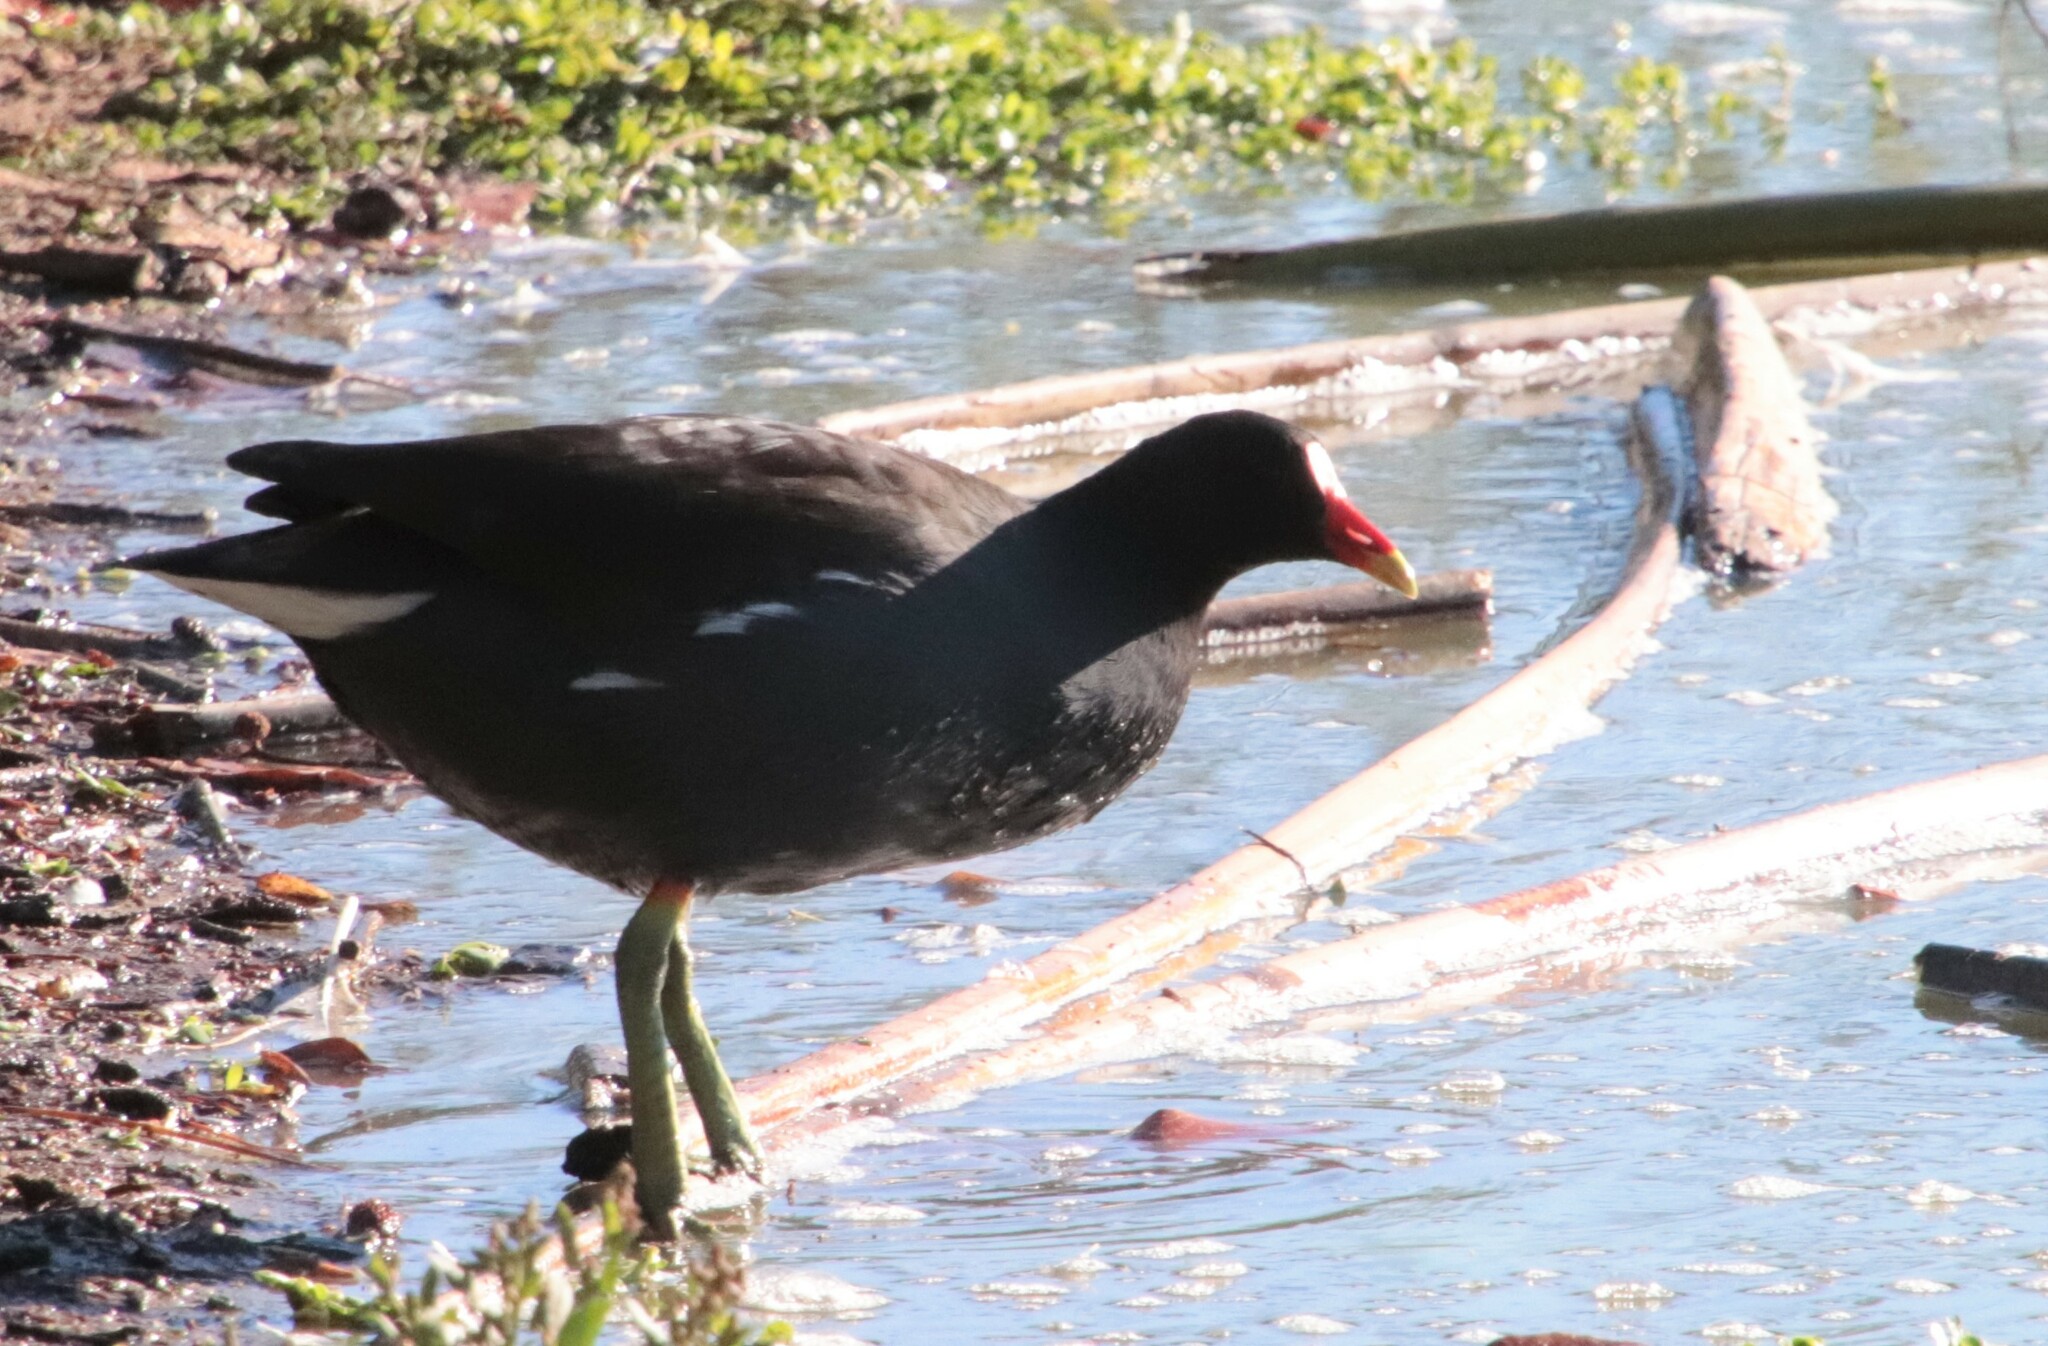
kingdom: Animalia
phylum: Chordata
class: Aves
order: Gruiformes
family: Rallidae
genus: Gallinula
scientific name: Gallinula chloropus
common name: Common moorhen
